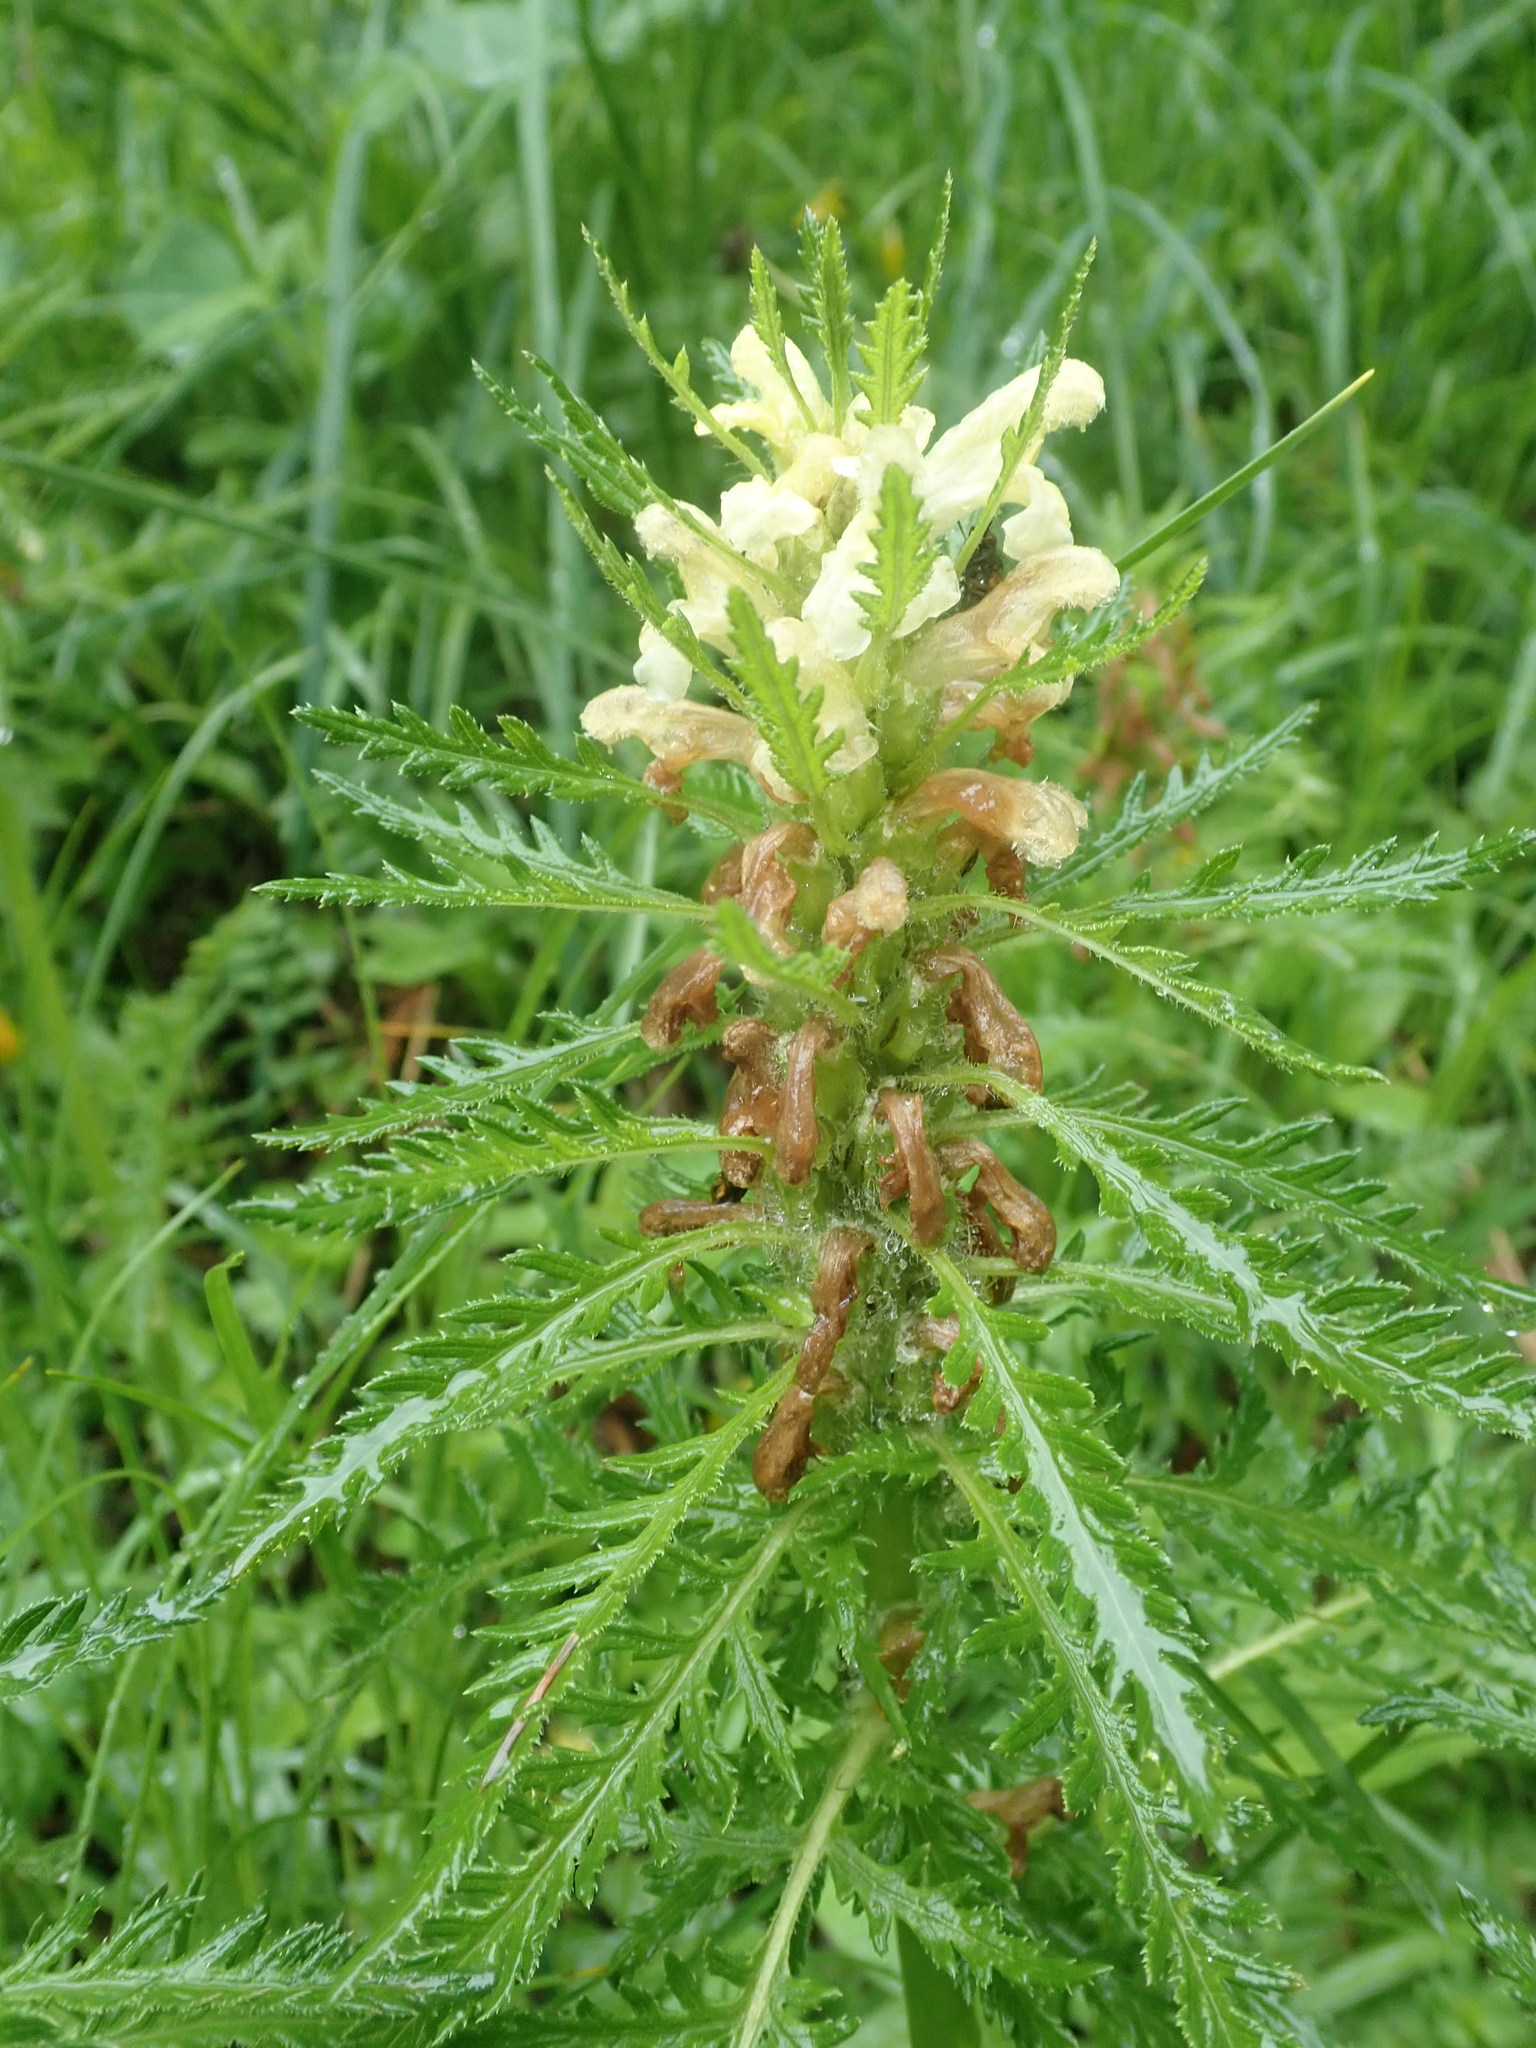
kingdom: Plantae
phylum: Tracheophyta
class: Magnoliopsida
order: Lamiales
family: Orobanchaceae
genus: Pedicularis
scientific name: Pedicularis foliosa
